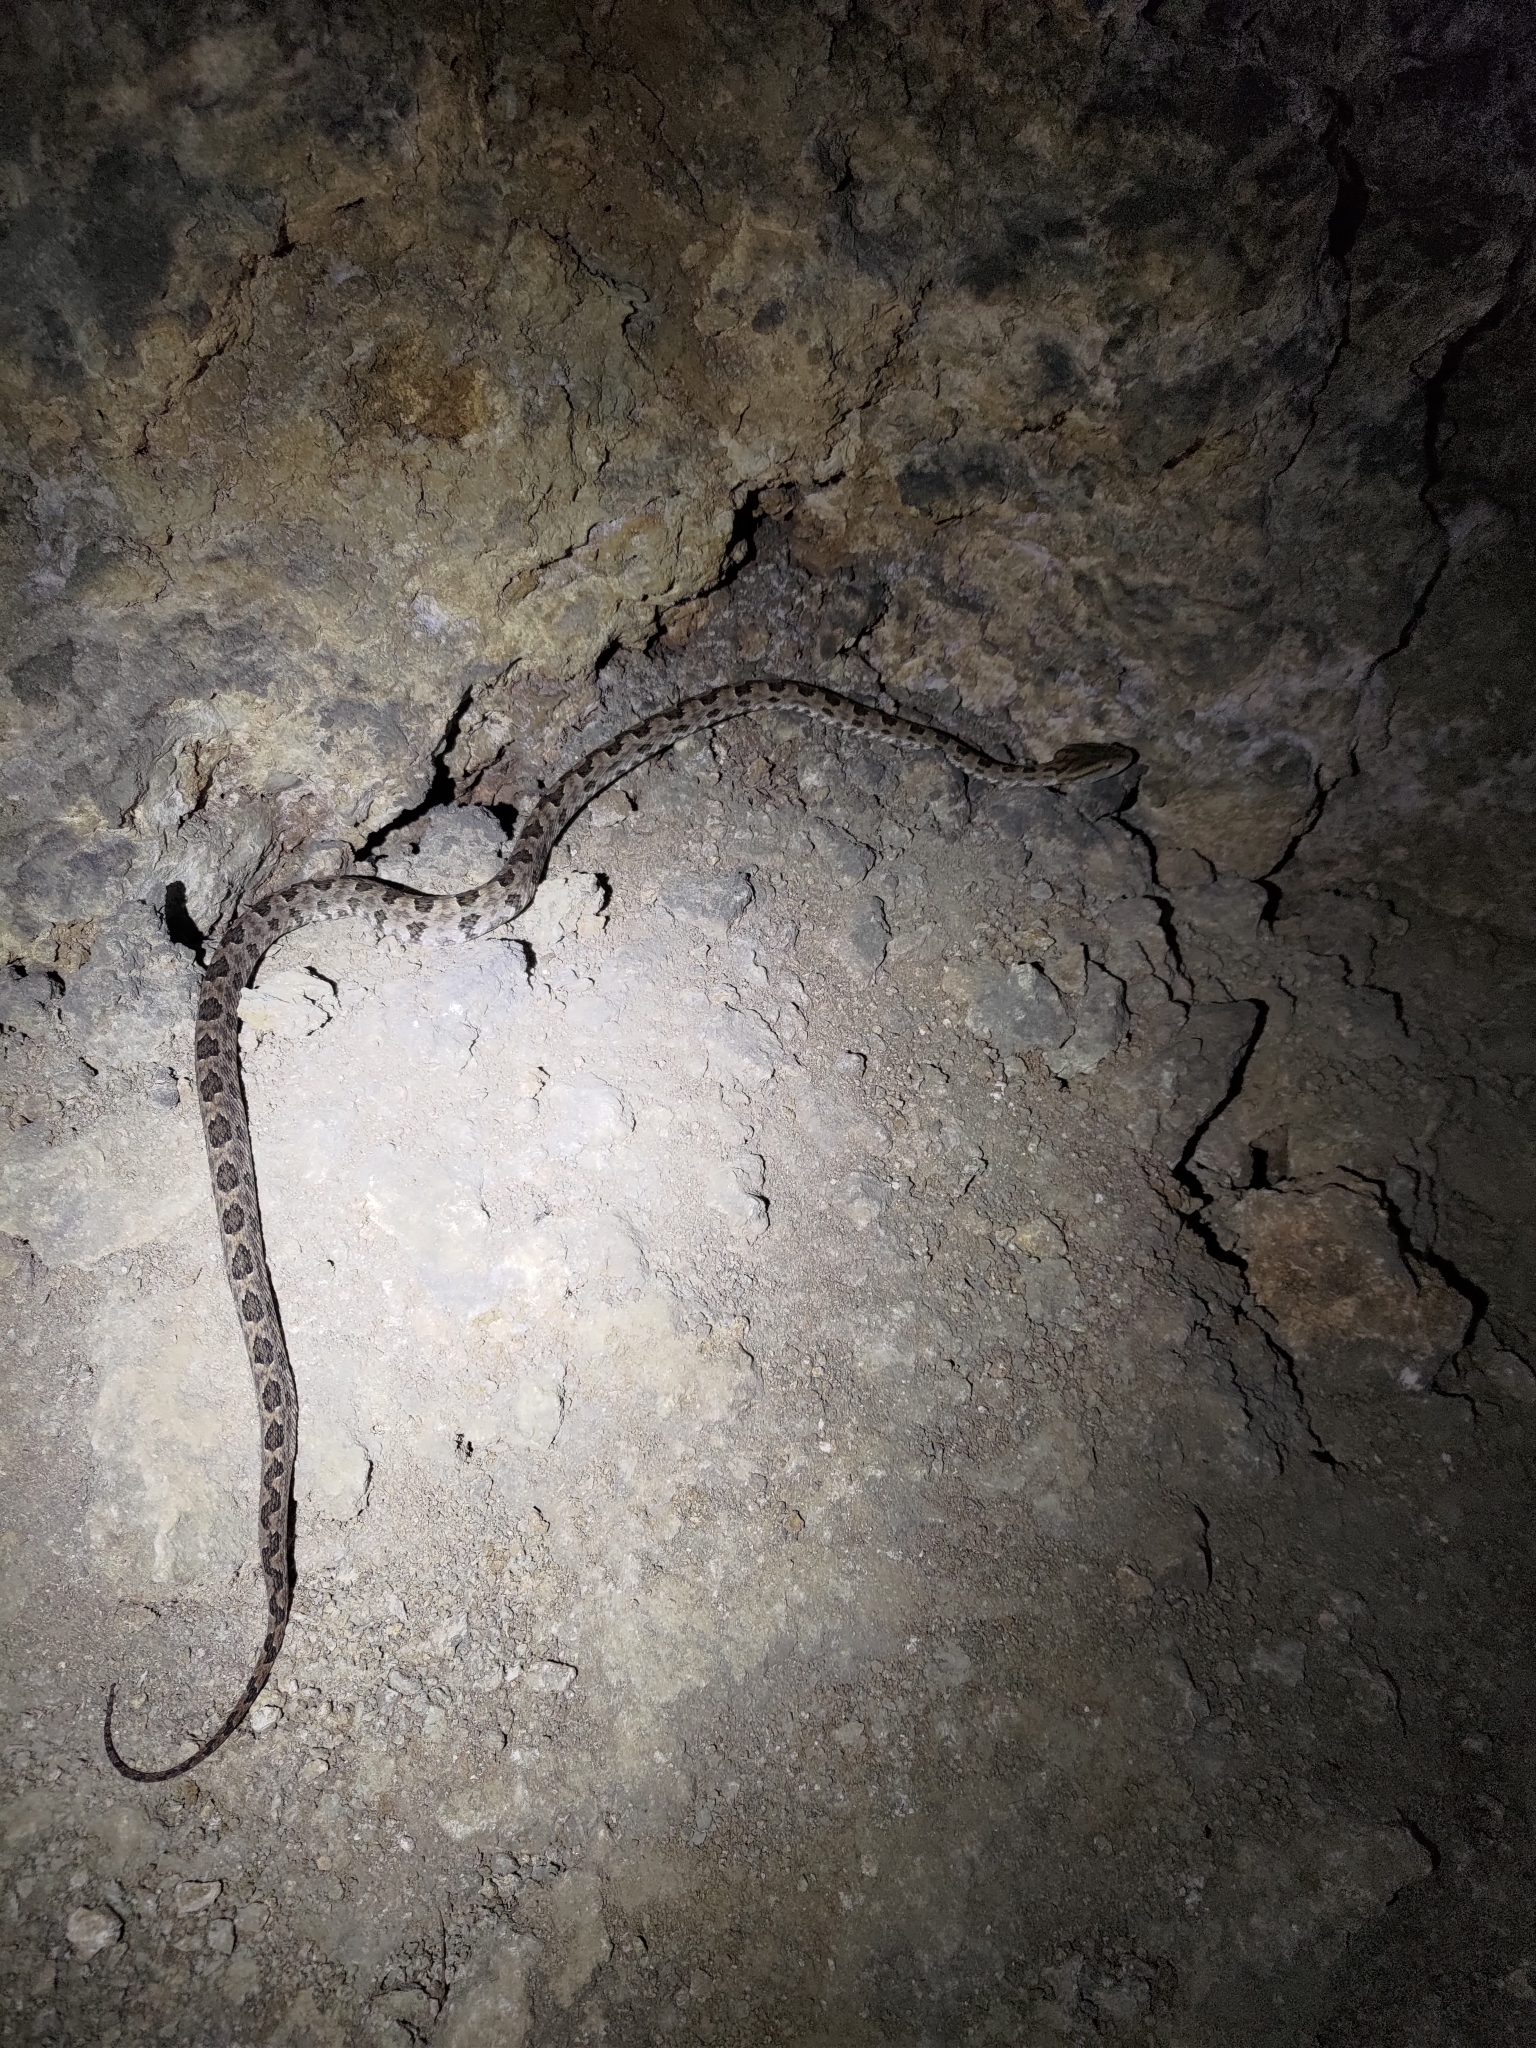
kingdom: Animalia
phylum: Chordata
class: Squamata
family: Viperidae
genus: Protobothrops
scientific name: Protobothrops mucrosquamatus
